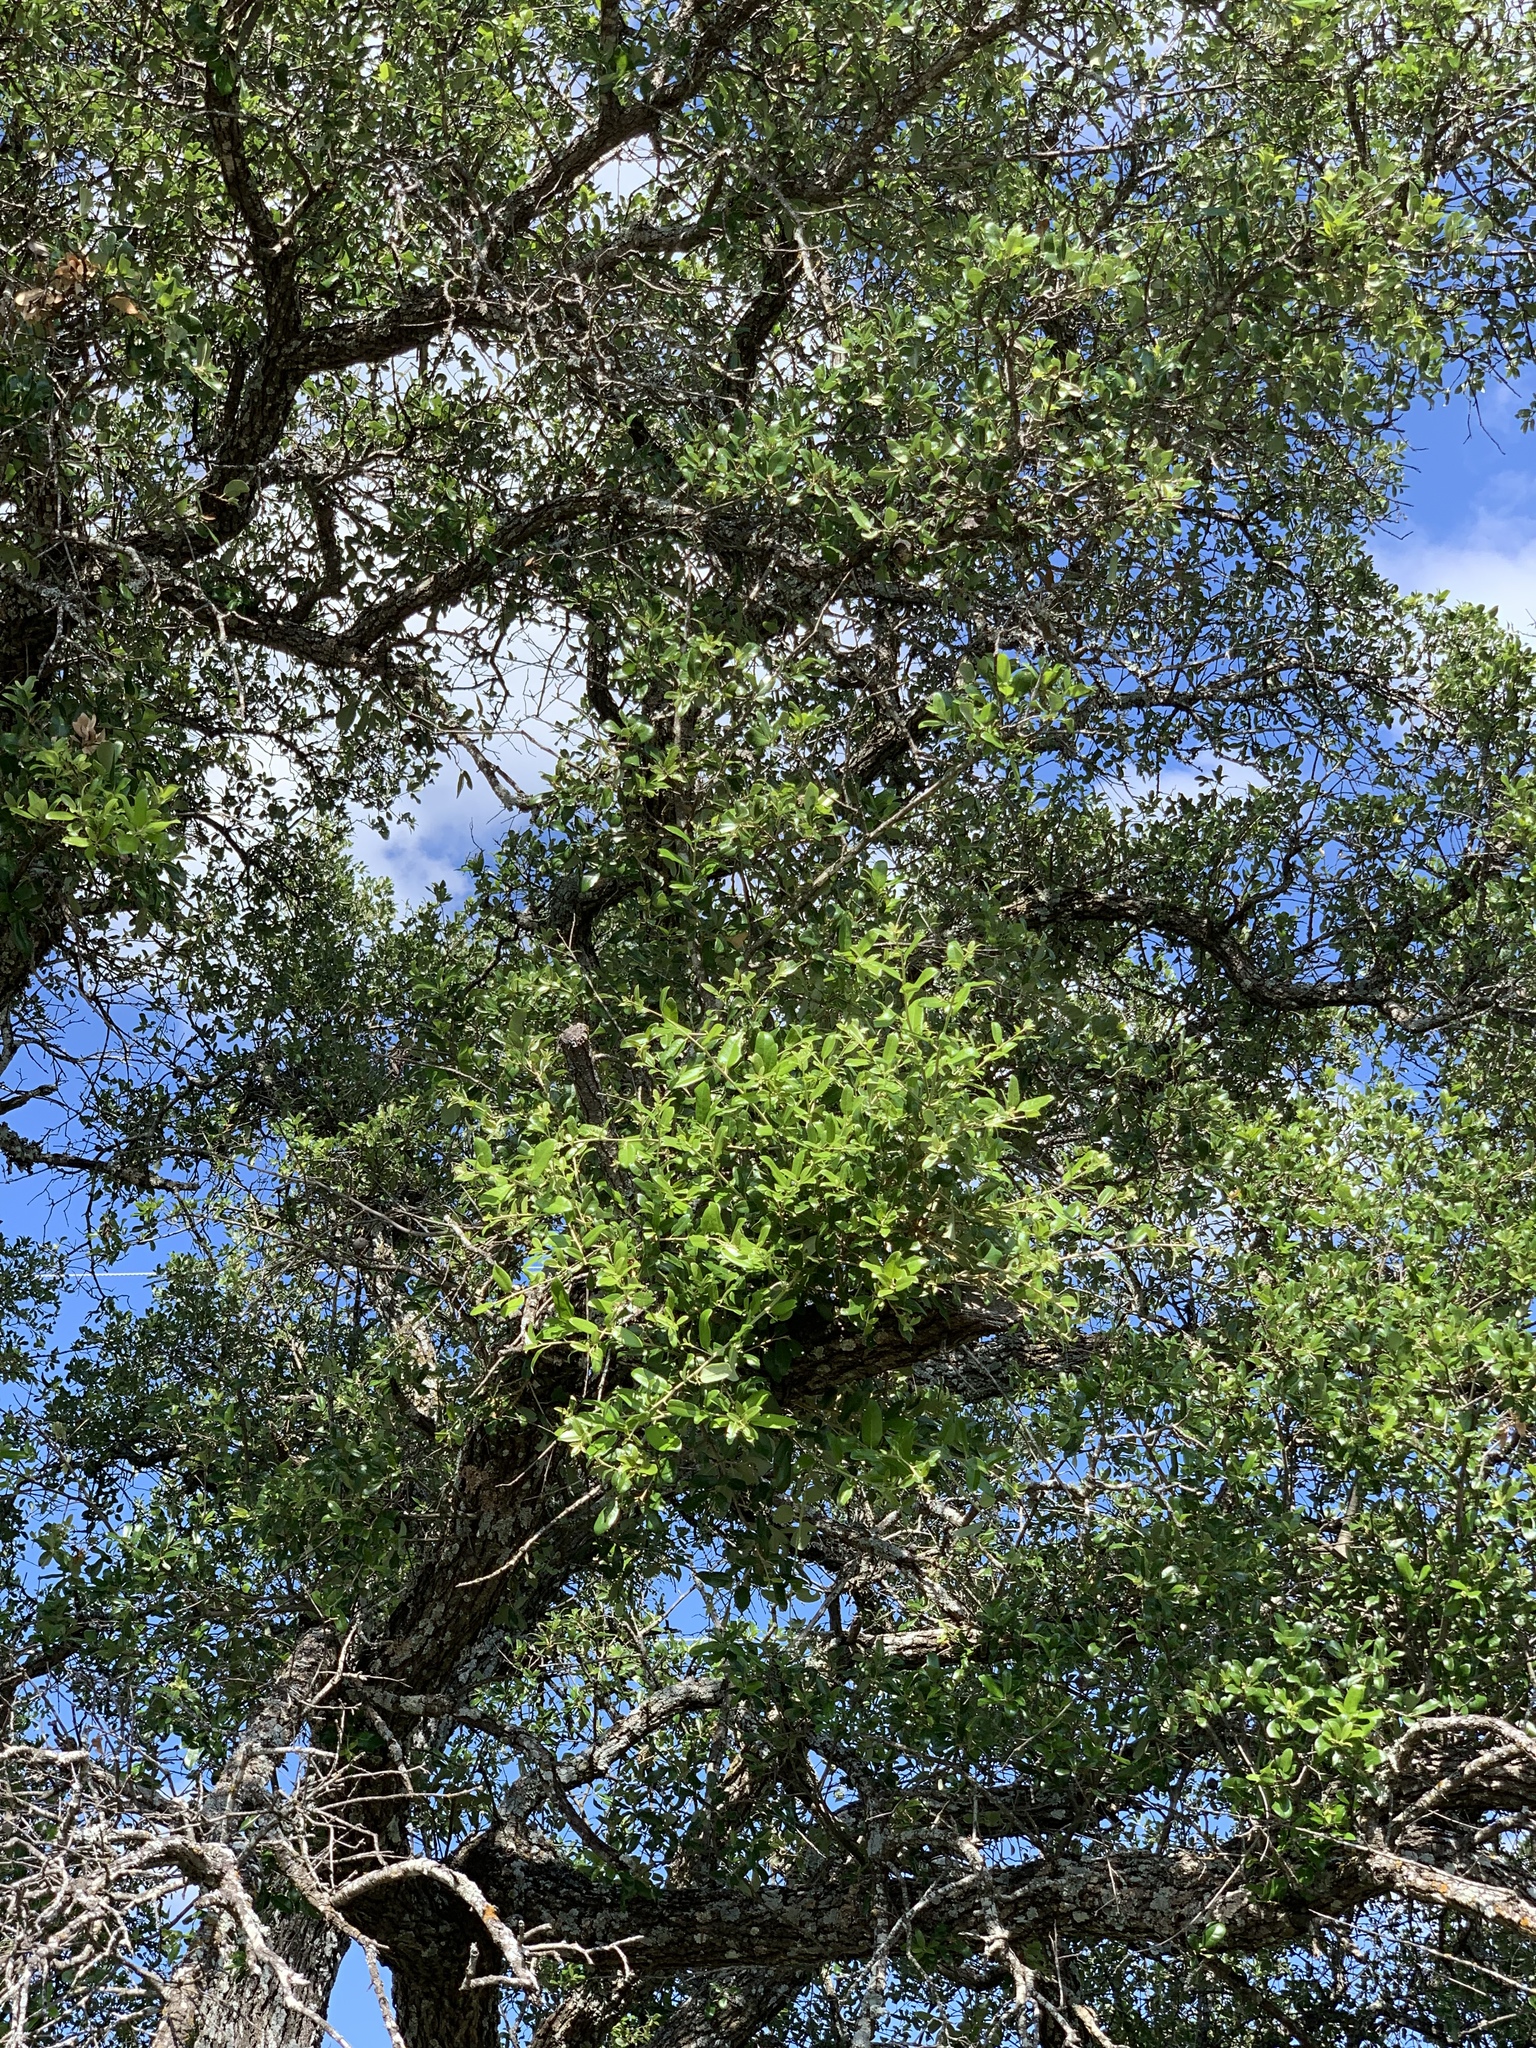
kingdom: Plantae
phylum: Tracheophyta
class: Magnoliopsida
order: Fagales
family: Fagaceae
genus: Quercus
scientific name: Quercus fusiformis
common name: Texas live oak
